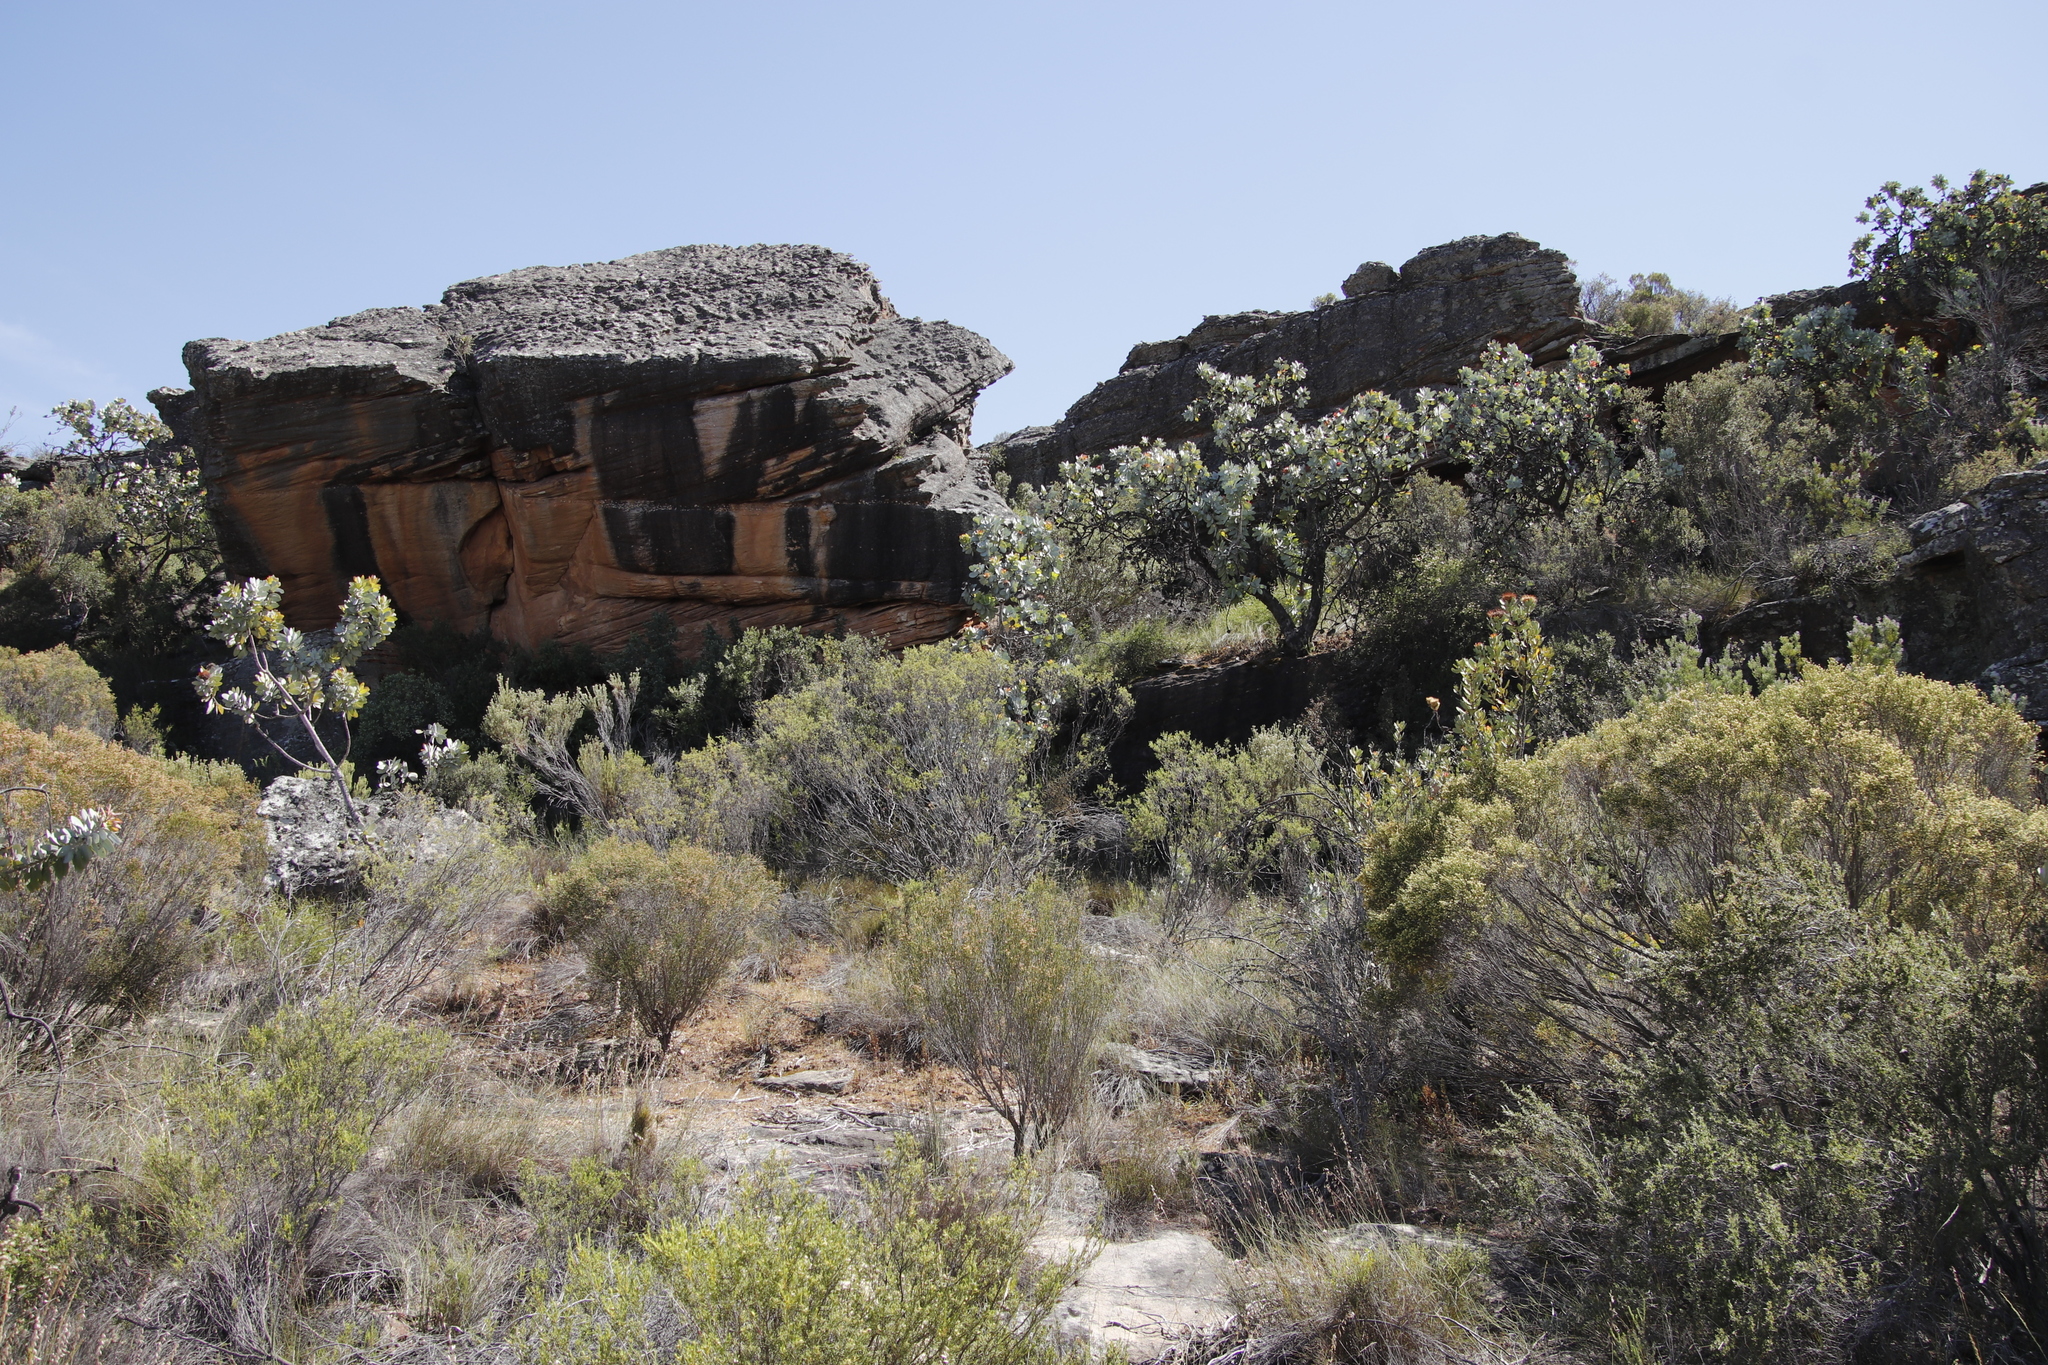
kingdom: Plantae
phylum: Tracheophyta
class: Magnoliopsida
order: Proteales
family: Proteaceae
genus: Protea
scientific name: Protea nitida
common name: Tree protea
